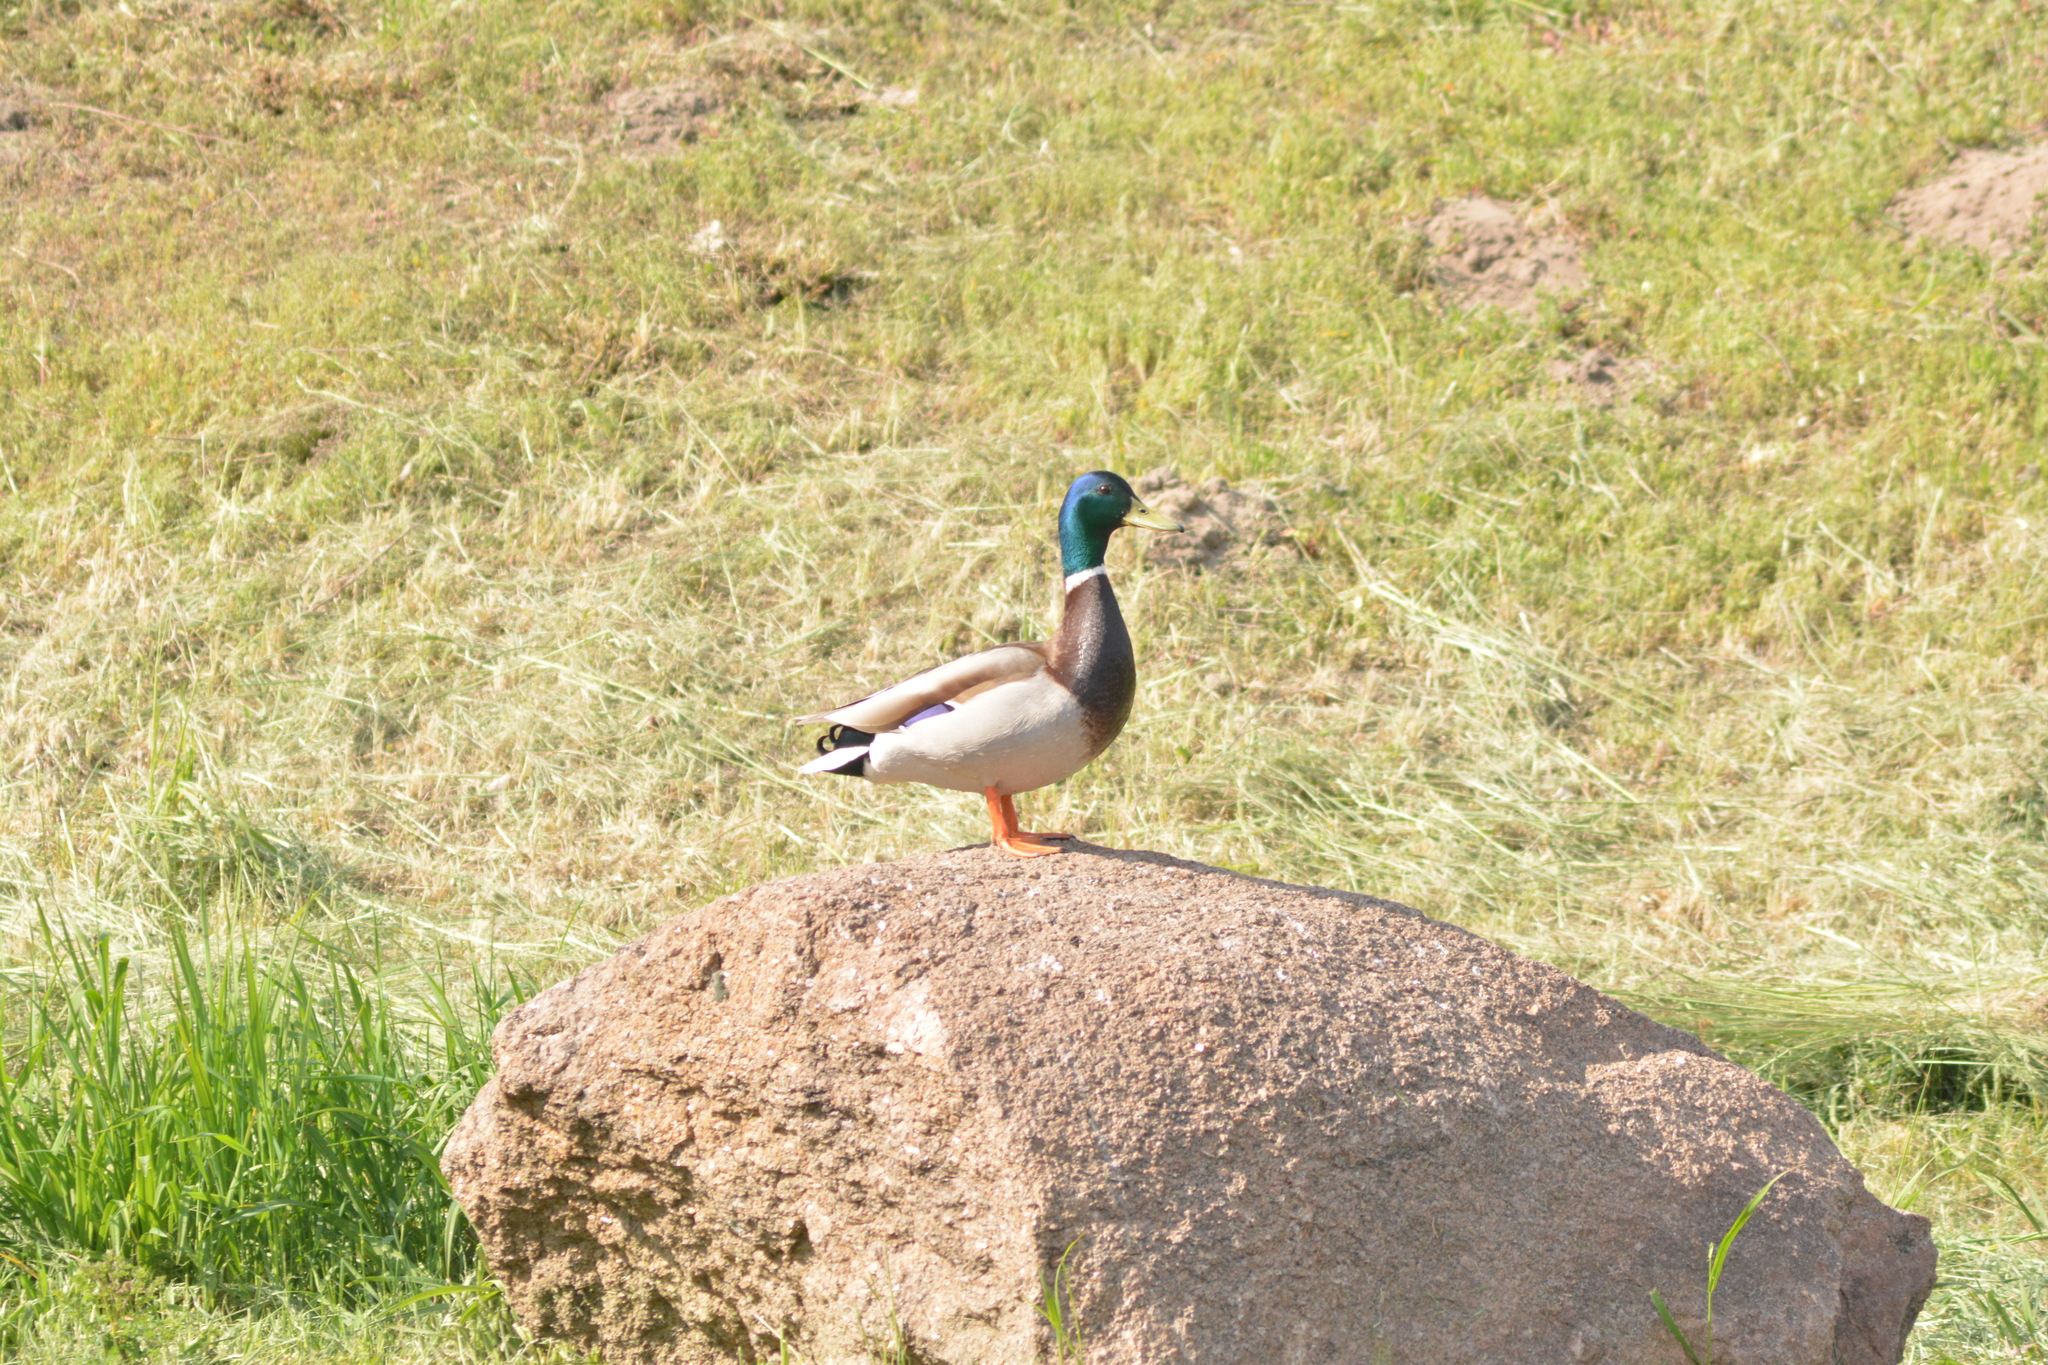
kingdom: Animalia
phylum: Chordata
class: Aves
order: Anseriformes
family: Anatidae
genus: Anas
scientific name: Anas platyrhynchos
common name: Mallard
